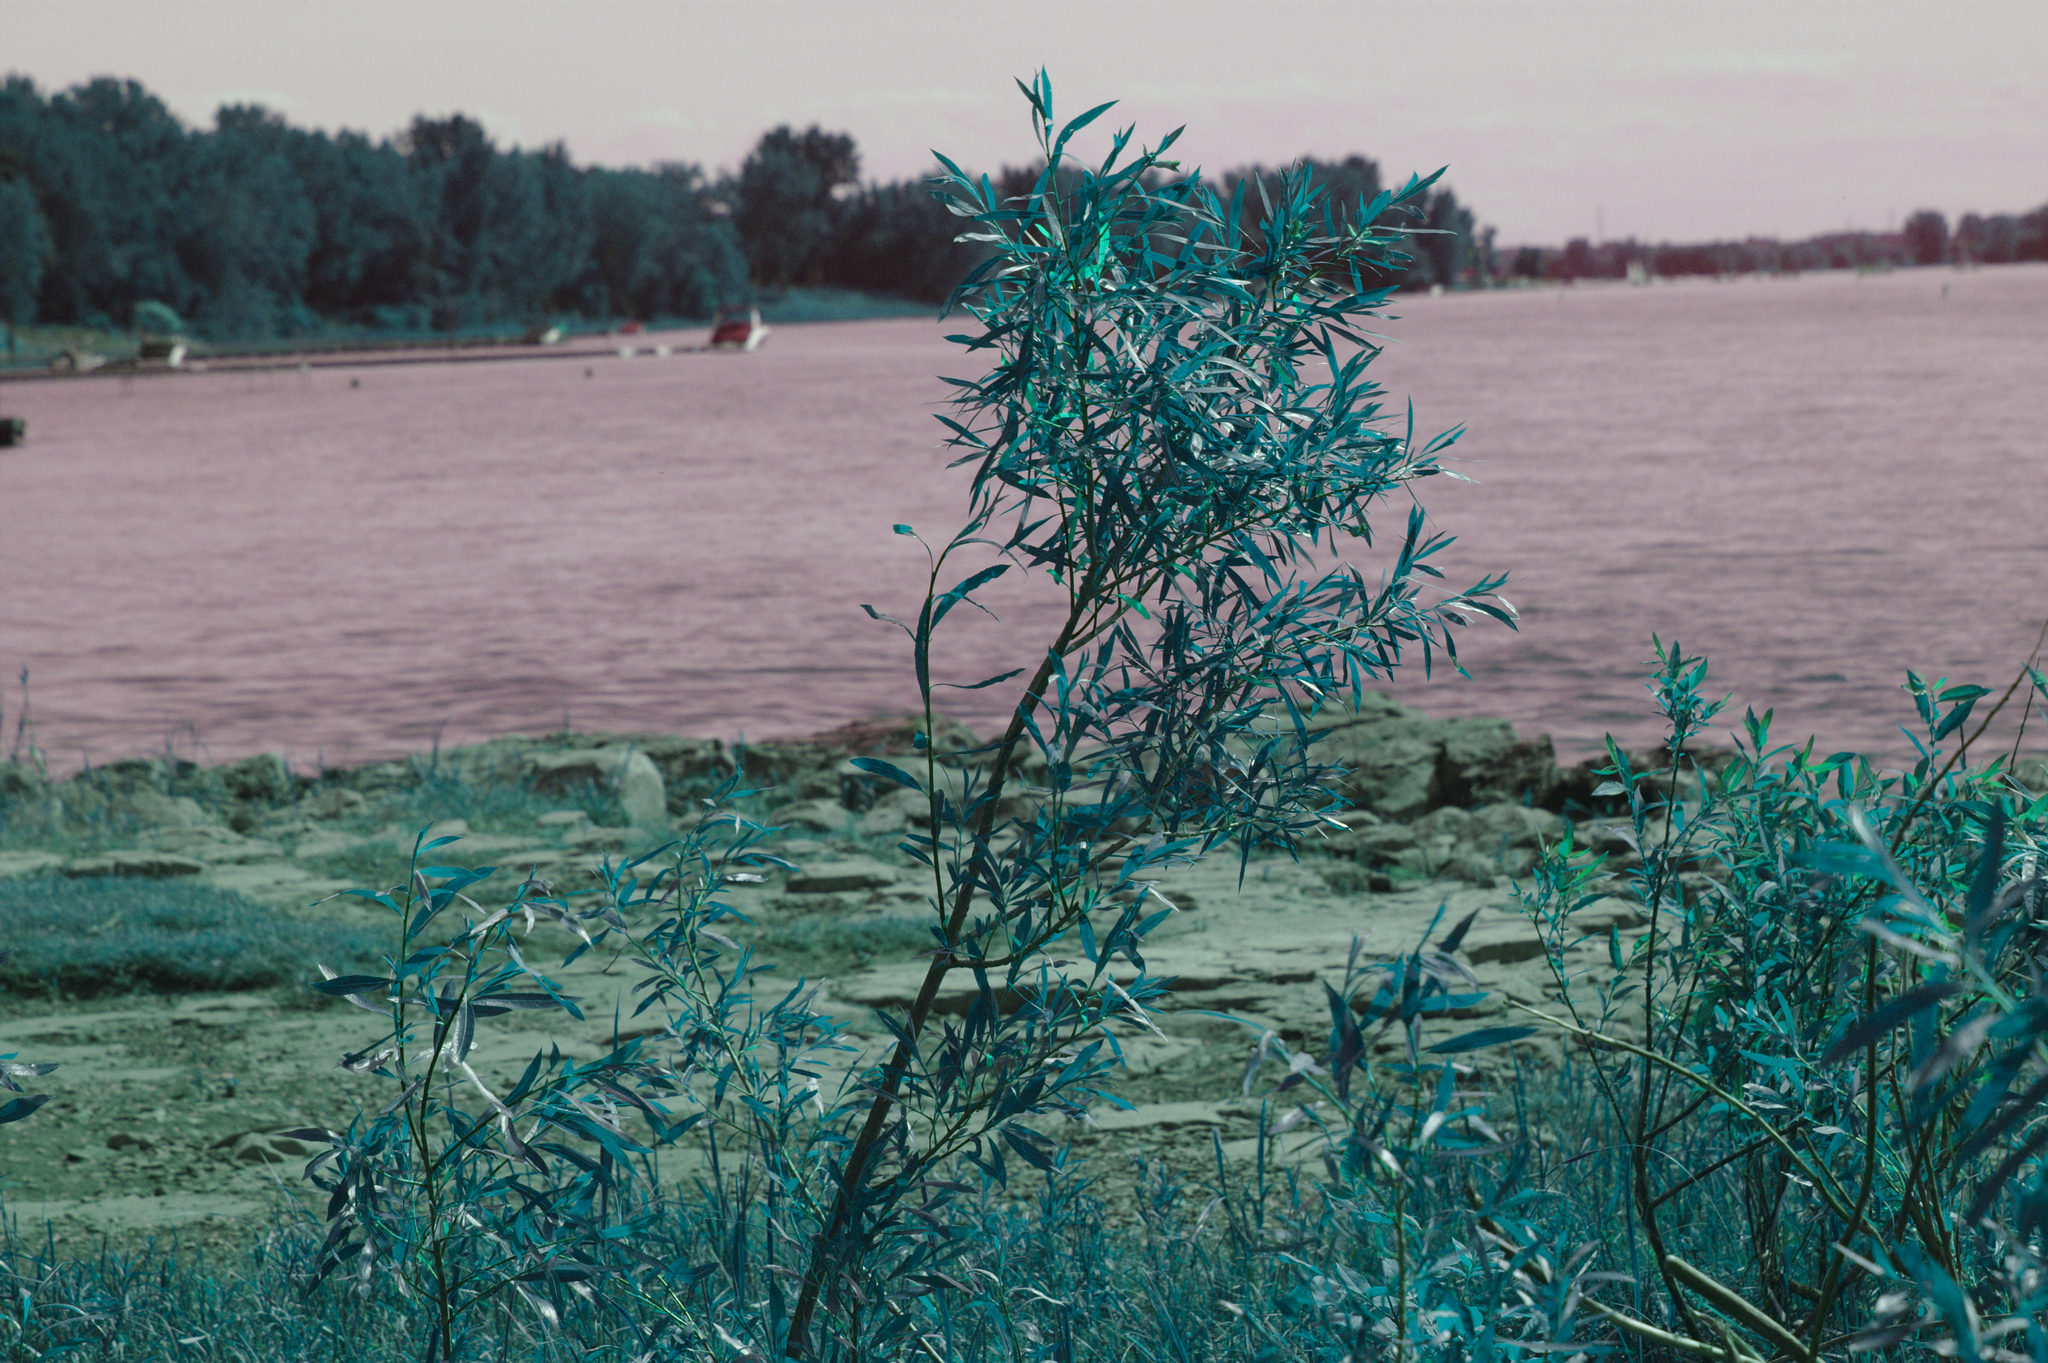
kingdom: Plantae
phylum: Tracheophyta
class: Magnoliopsida
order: Malpighiales
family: Salicaceae
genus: Salix
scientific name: Salix interior
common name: Sandbar willow
